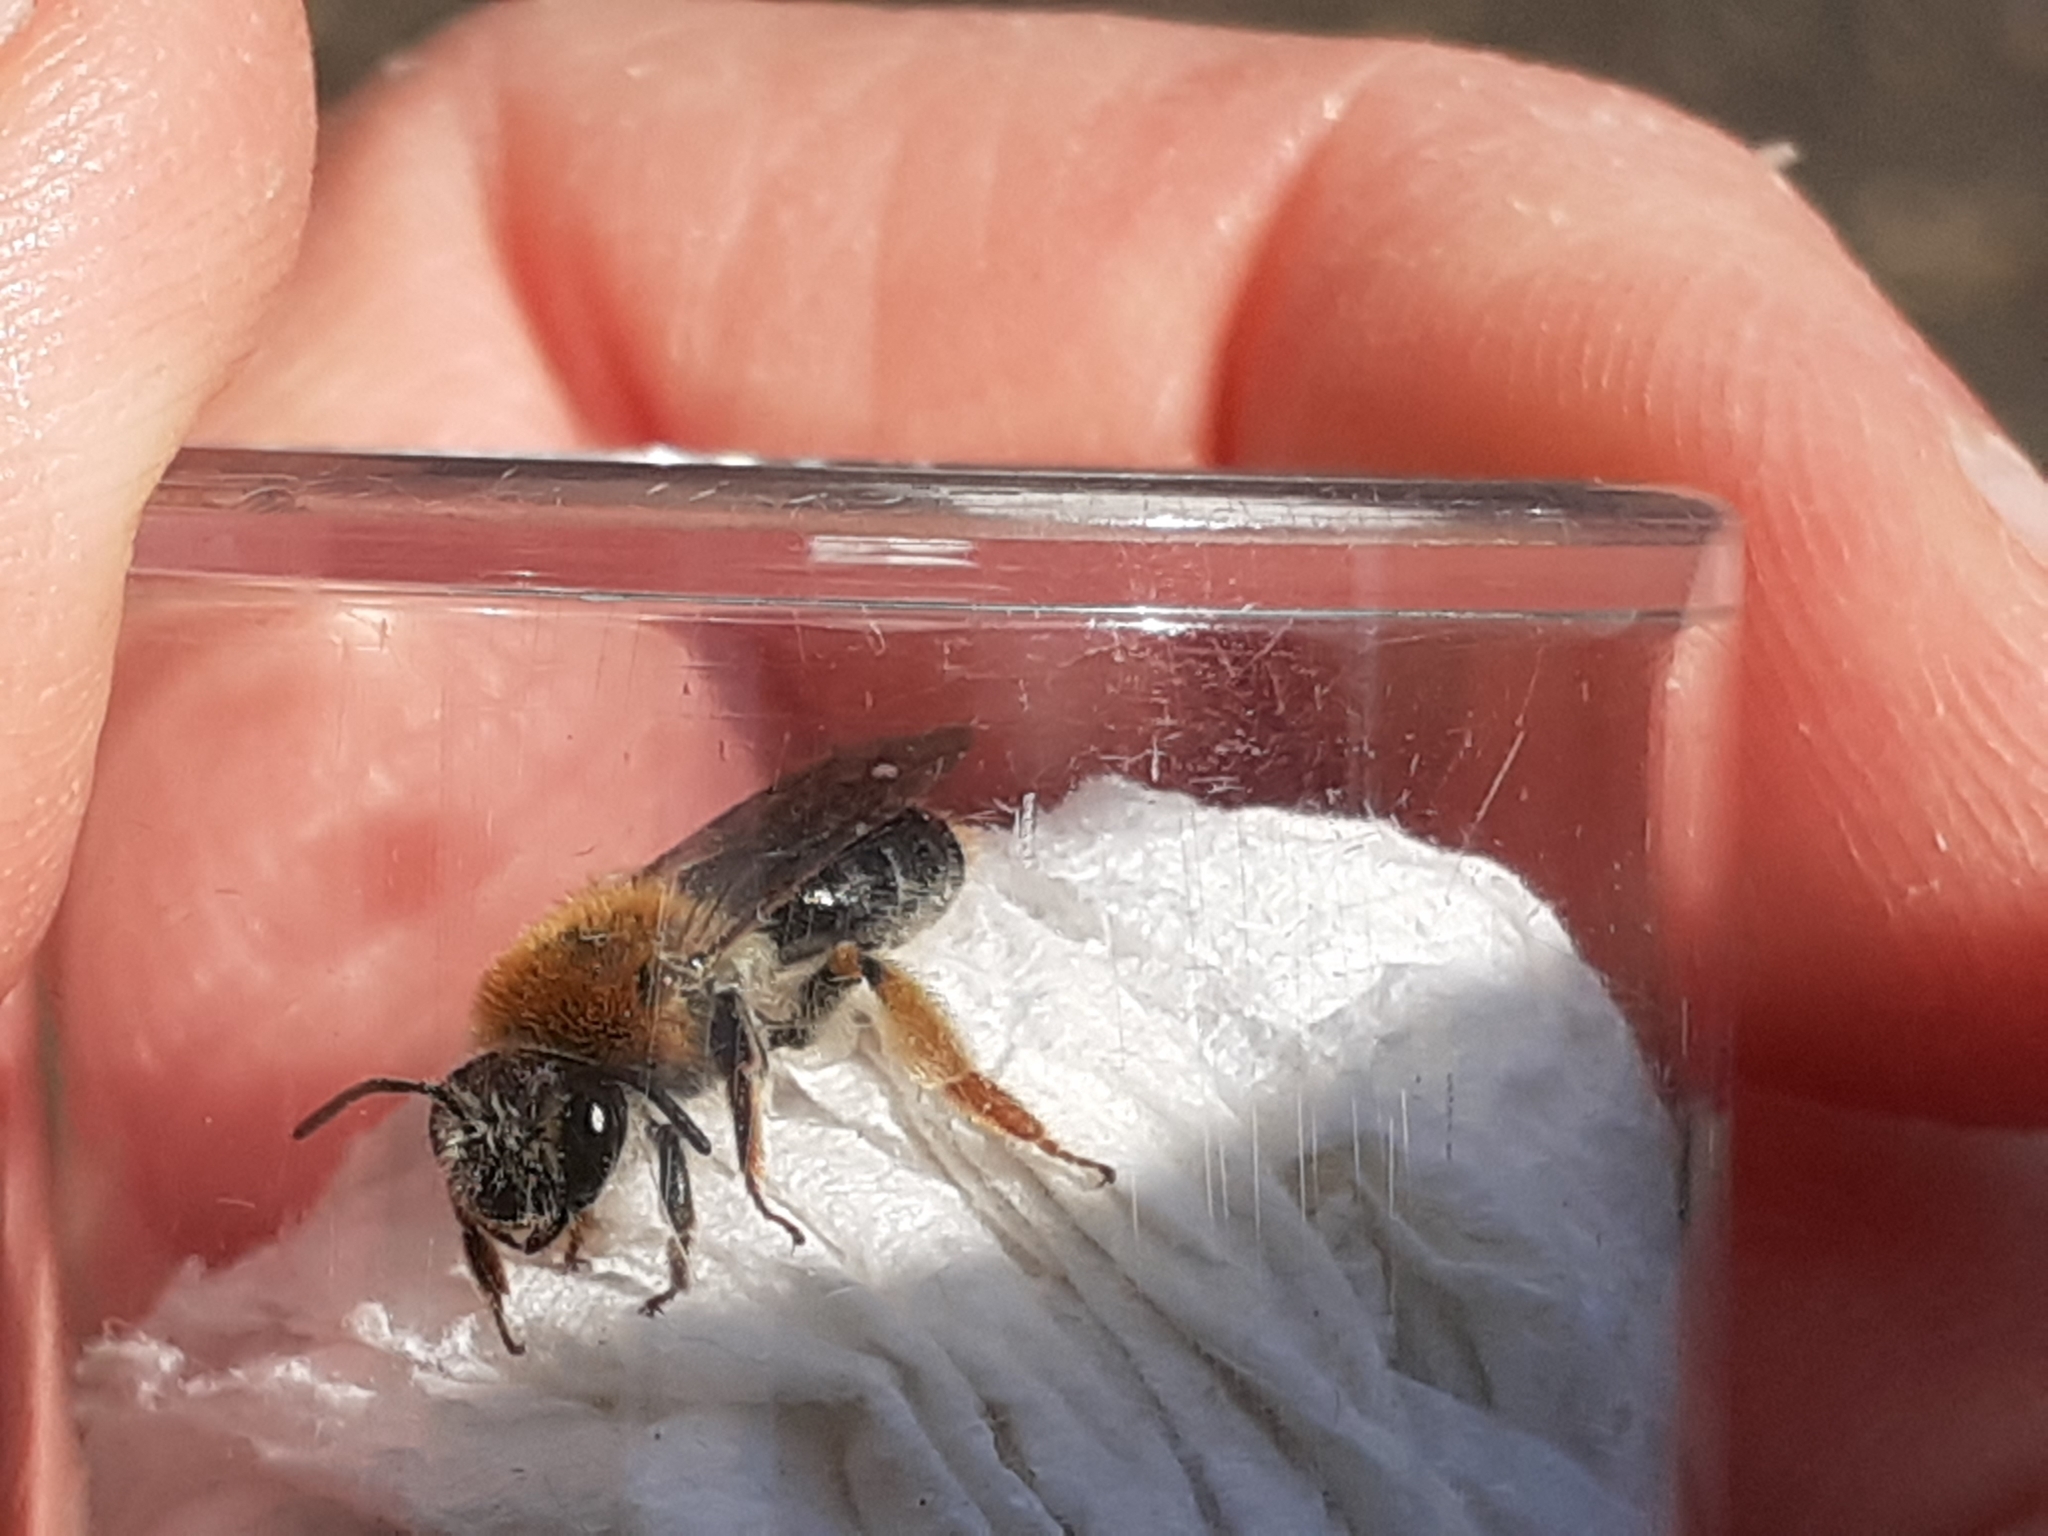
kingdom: Animalia
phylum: Arthropoda
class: Insecta
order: Hymenoptera
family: Andrenidae
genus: Andrena
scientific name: Andrena haemorrhoa
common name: Early mining bee
